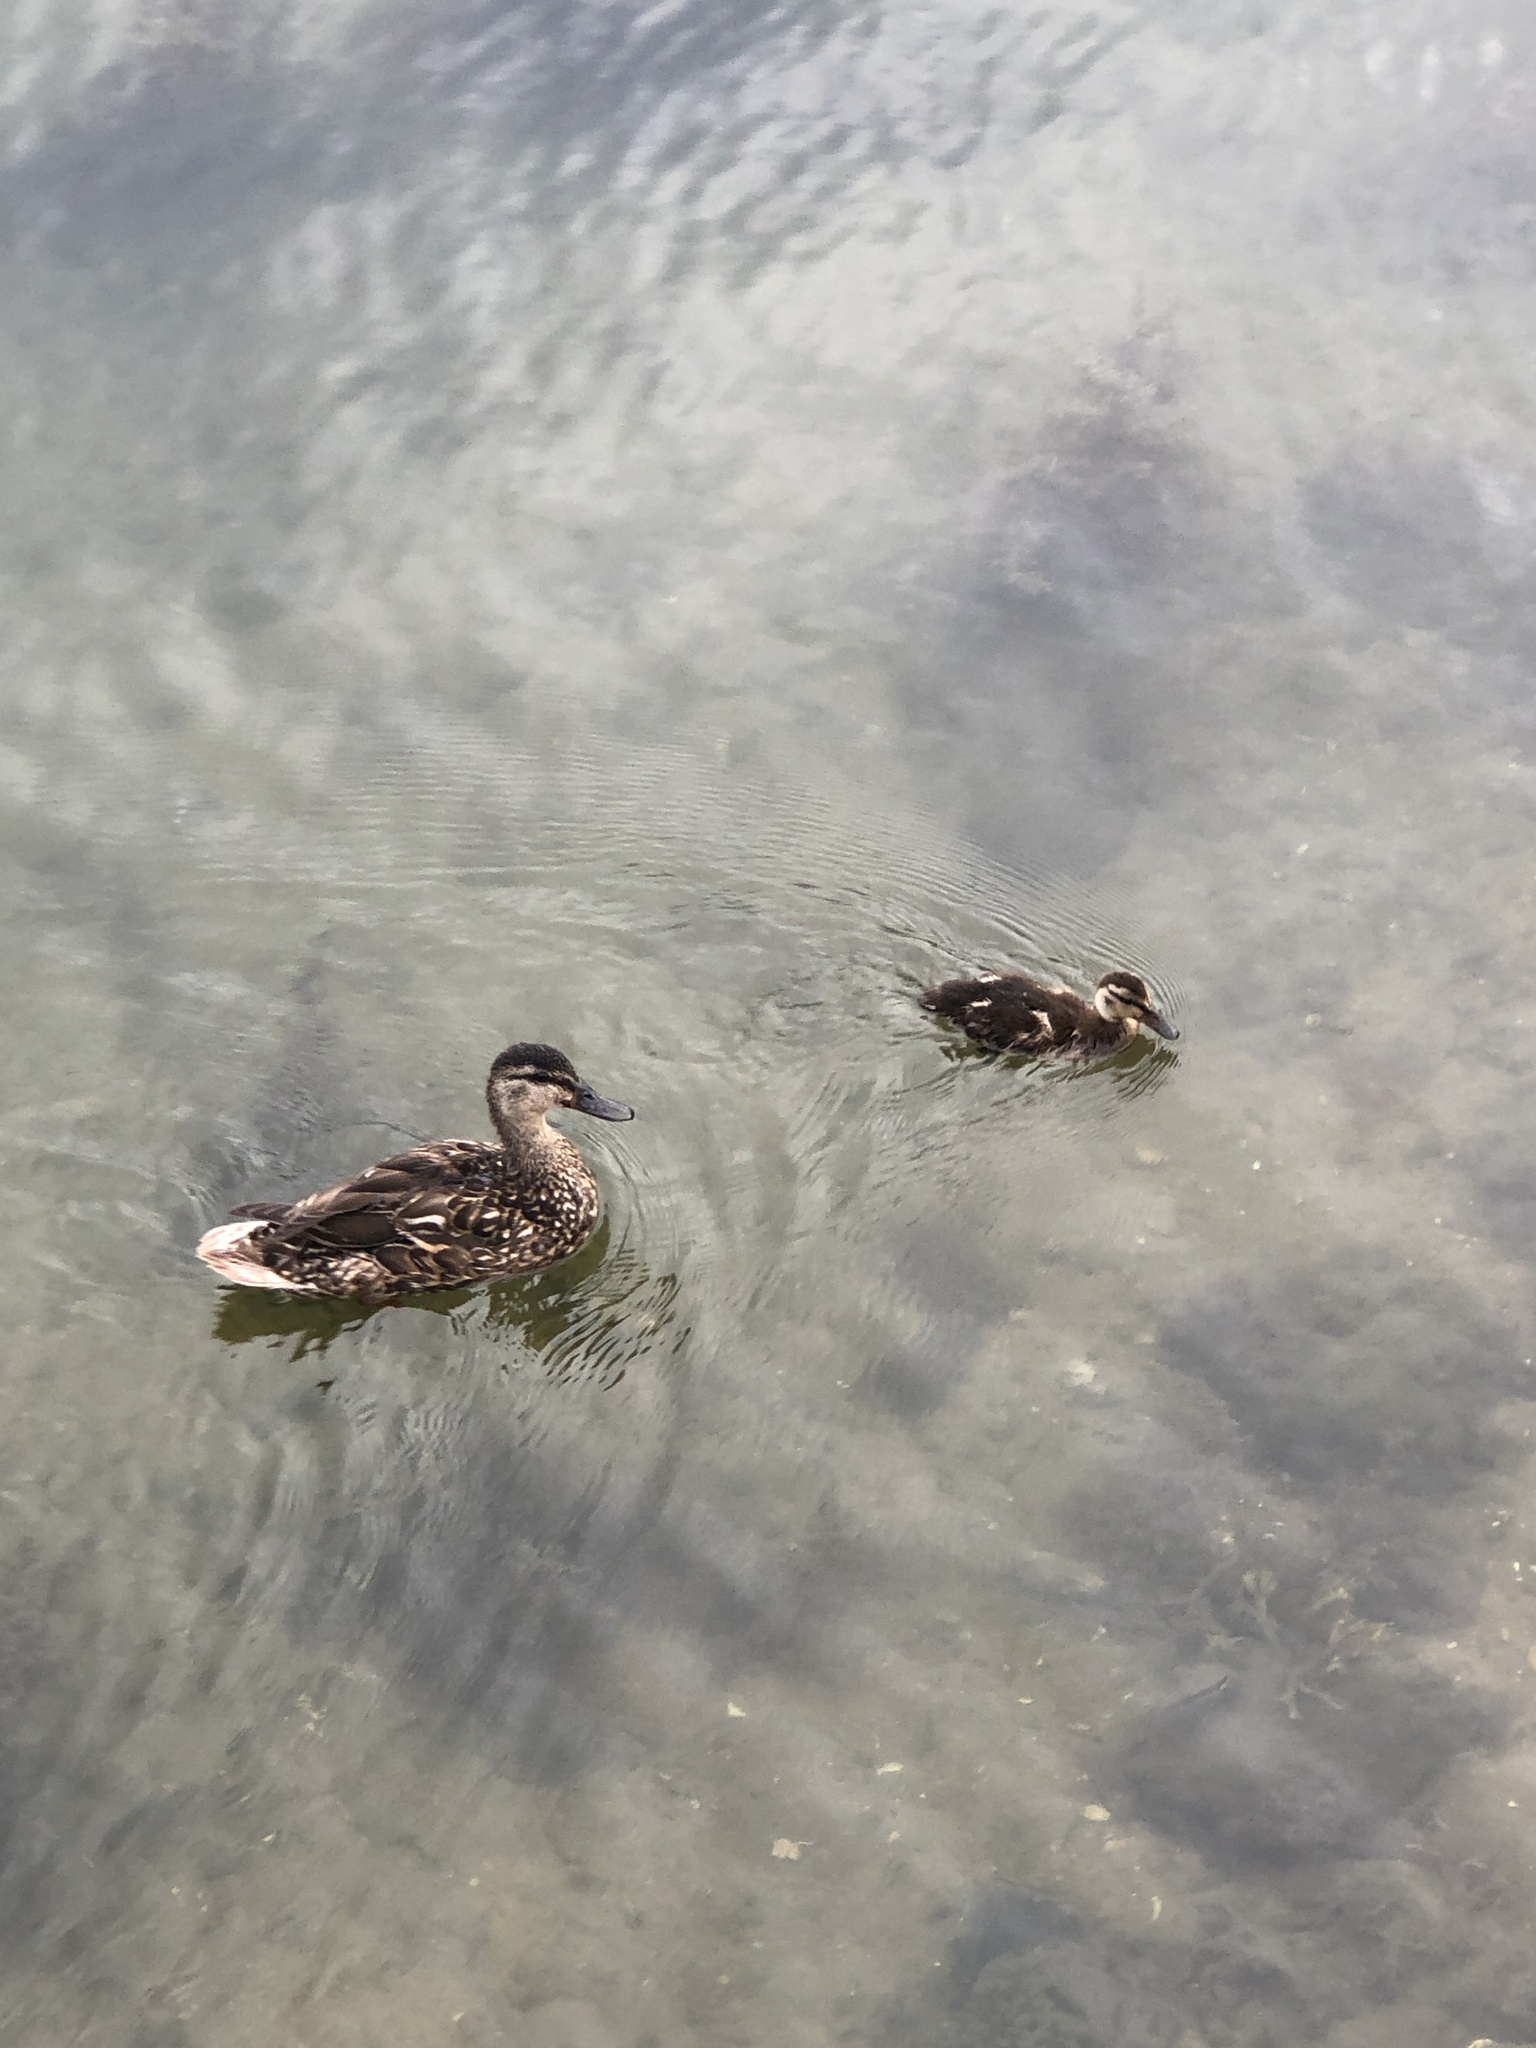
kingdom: Animalia
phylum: Chordata
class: Aves
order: Anseriformes
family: Anatidae
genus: Anas
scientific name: Anas platyrhynchos
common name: Mallard
